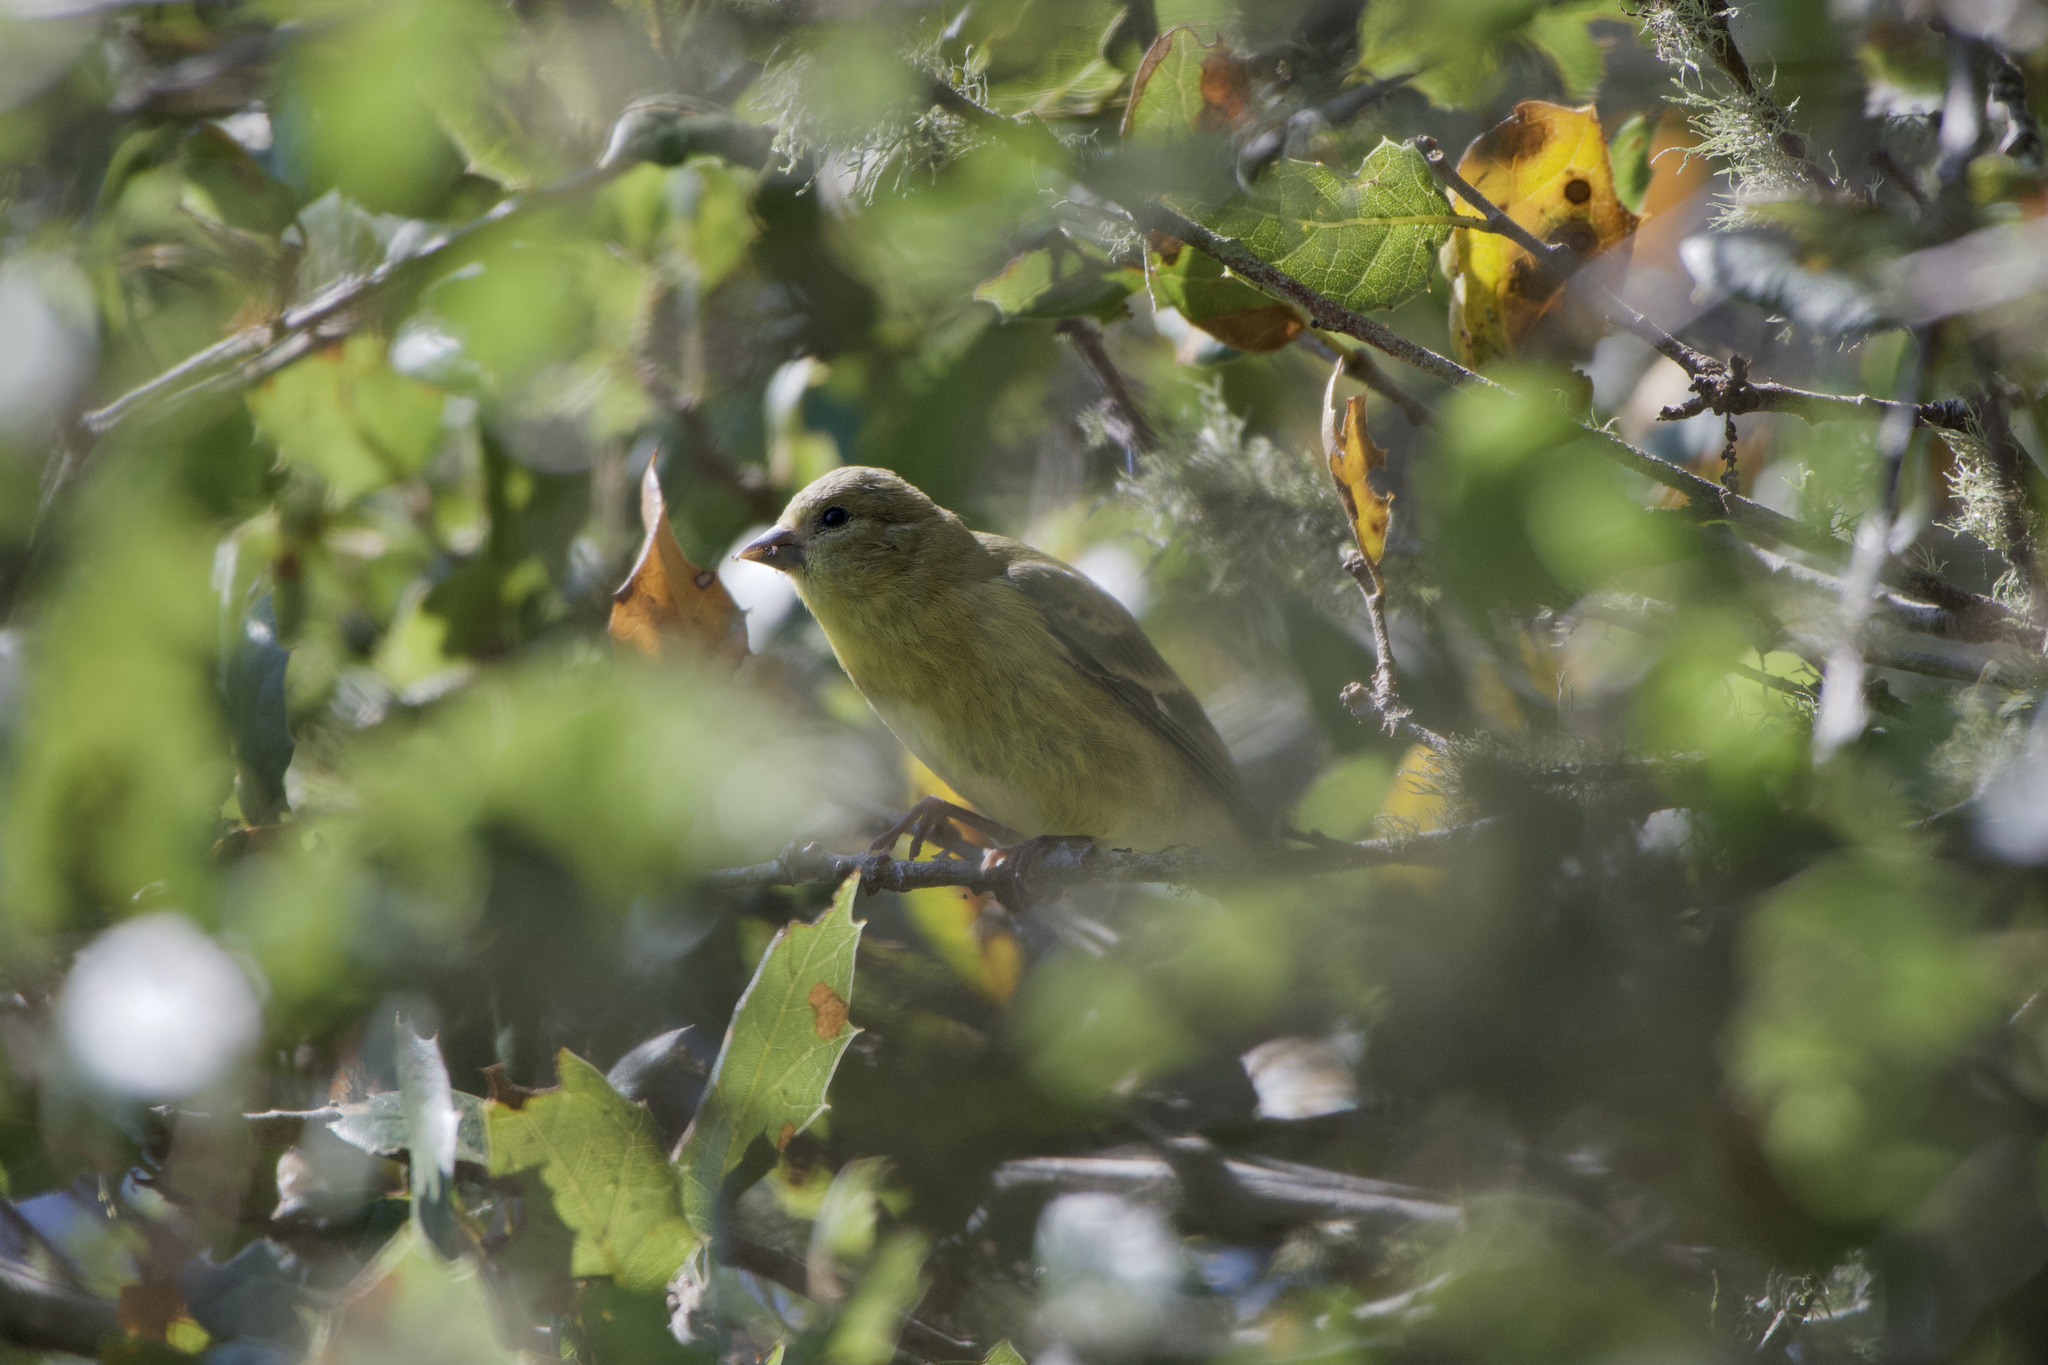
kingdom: Animalia
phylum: Chordata
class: Aves
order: Passeriformes
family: Fringillidae
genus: Spinus
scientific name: Spinus psaltria
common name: Lesser goldfinch
